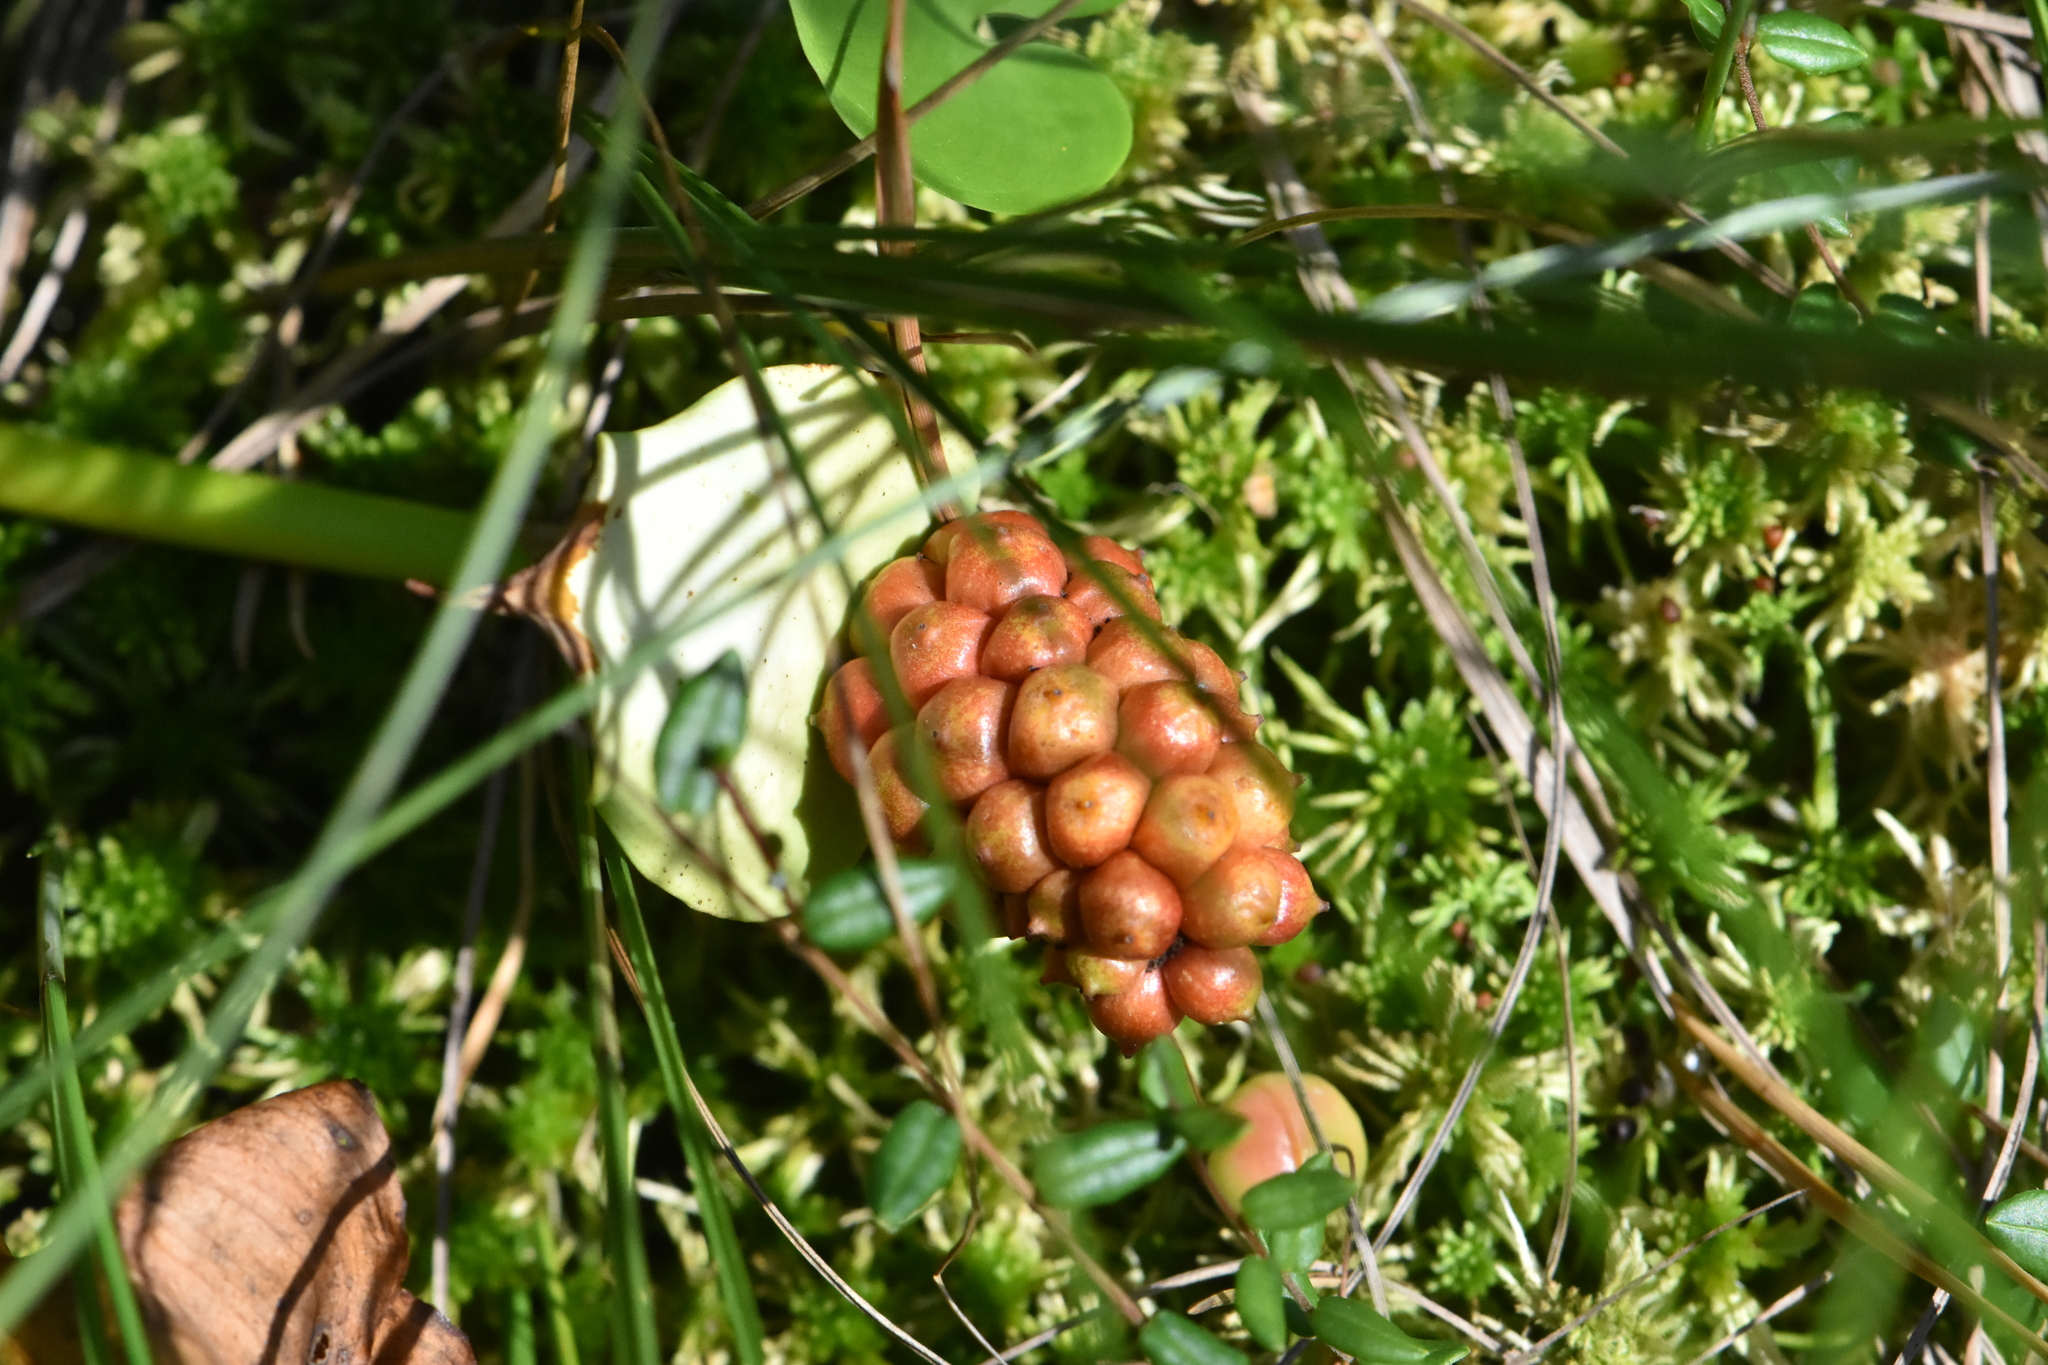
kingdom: Plantae
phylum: Tracheophyta
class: Liliopsida
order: Alismatales
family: Araceae
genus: Calla
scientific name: Calla palustris
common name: Bog arum
